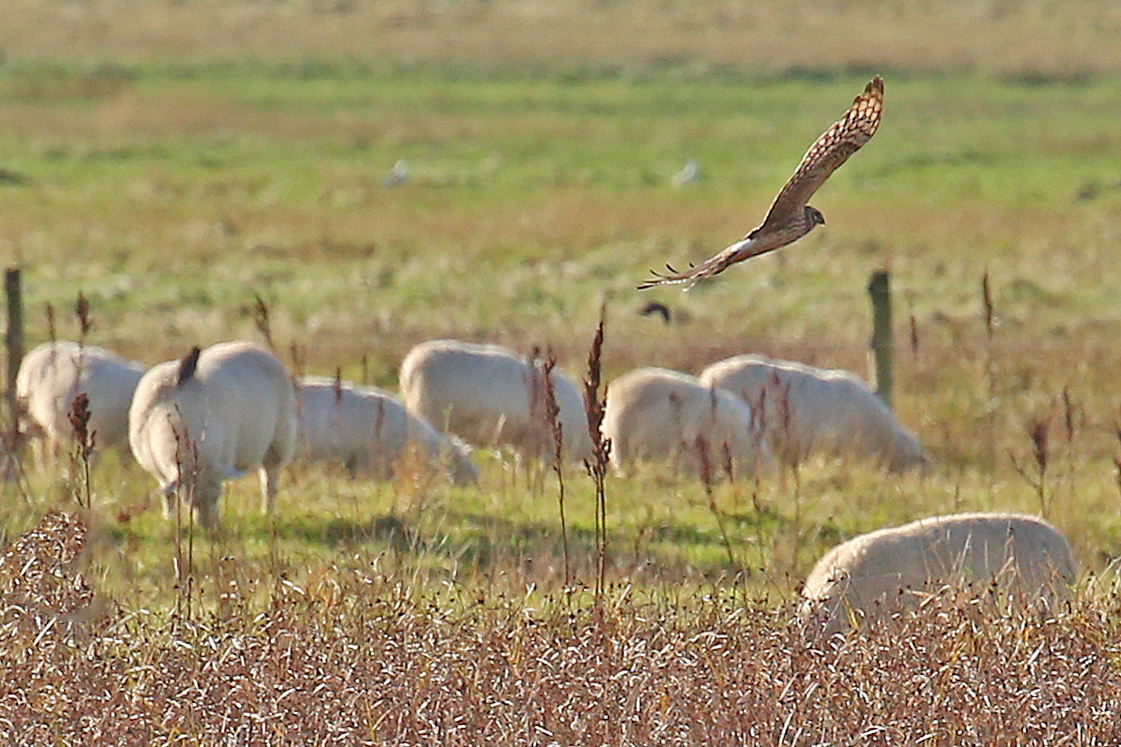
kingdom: Animalia
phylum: Chordata
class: Aves
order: Accipitriformes
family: Accipitridae
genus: Circus
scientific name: Circus cyaneus
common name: Hen harrier
